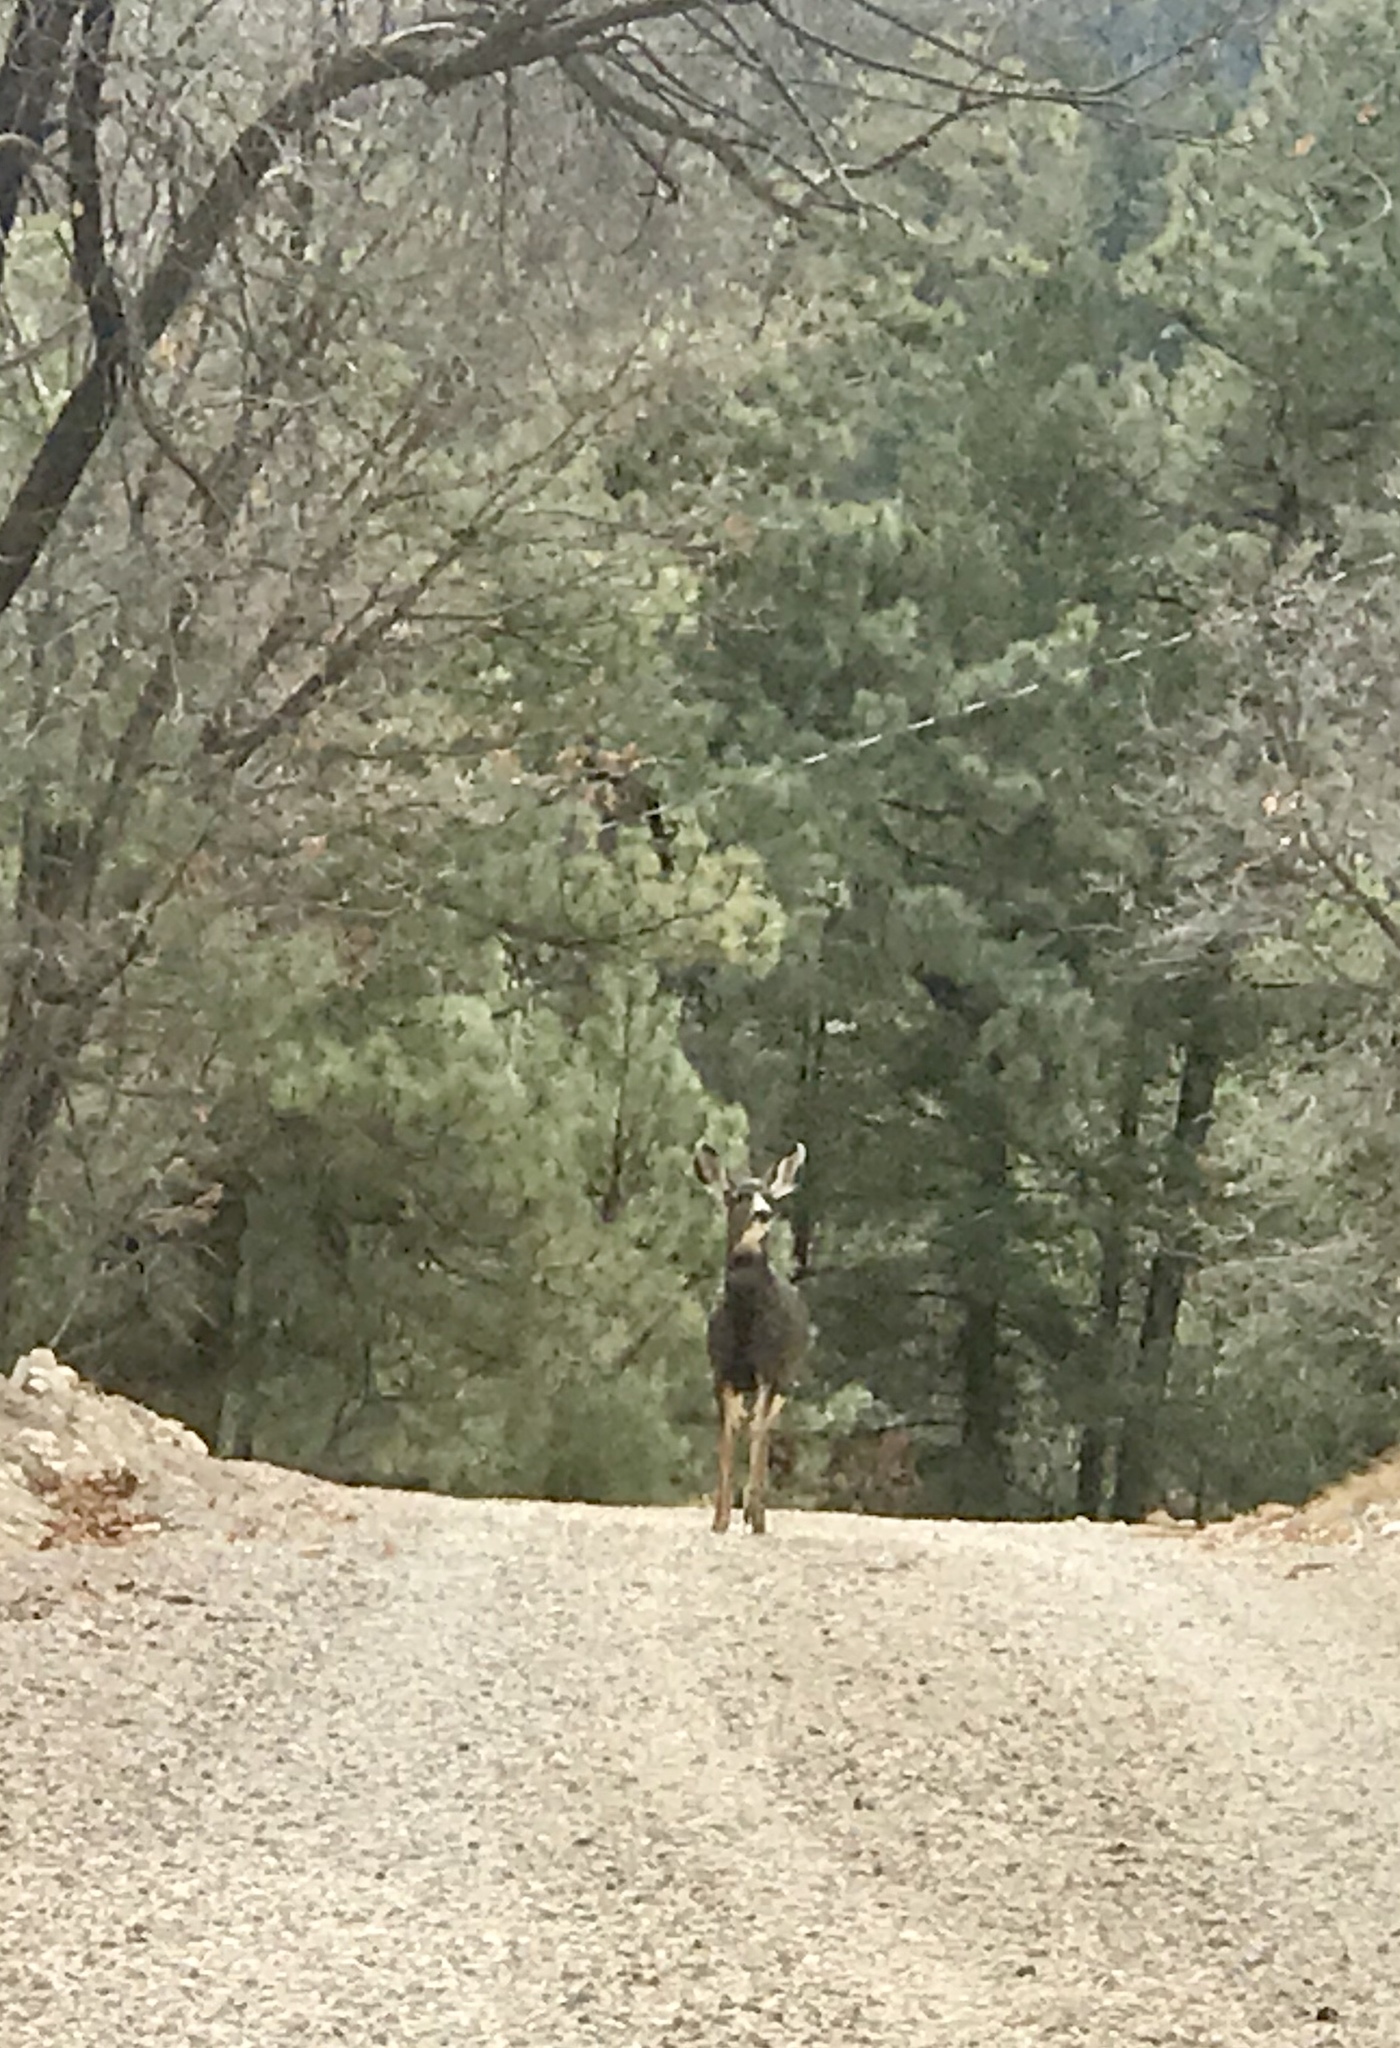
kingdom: Animalia
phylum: Chordata
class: Mammalia
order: Artiodactyla
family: Cervidae
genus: Odocoileus
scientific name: Odocoileus hemionus
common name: Mule deer
